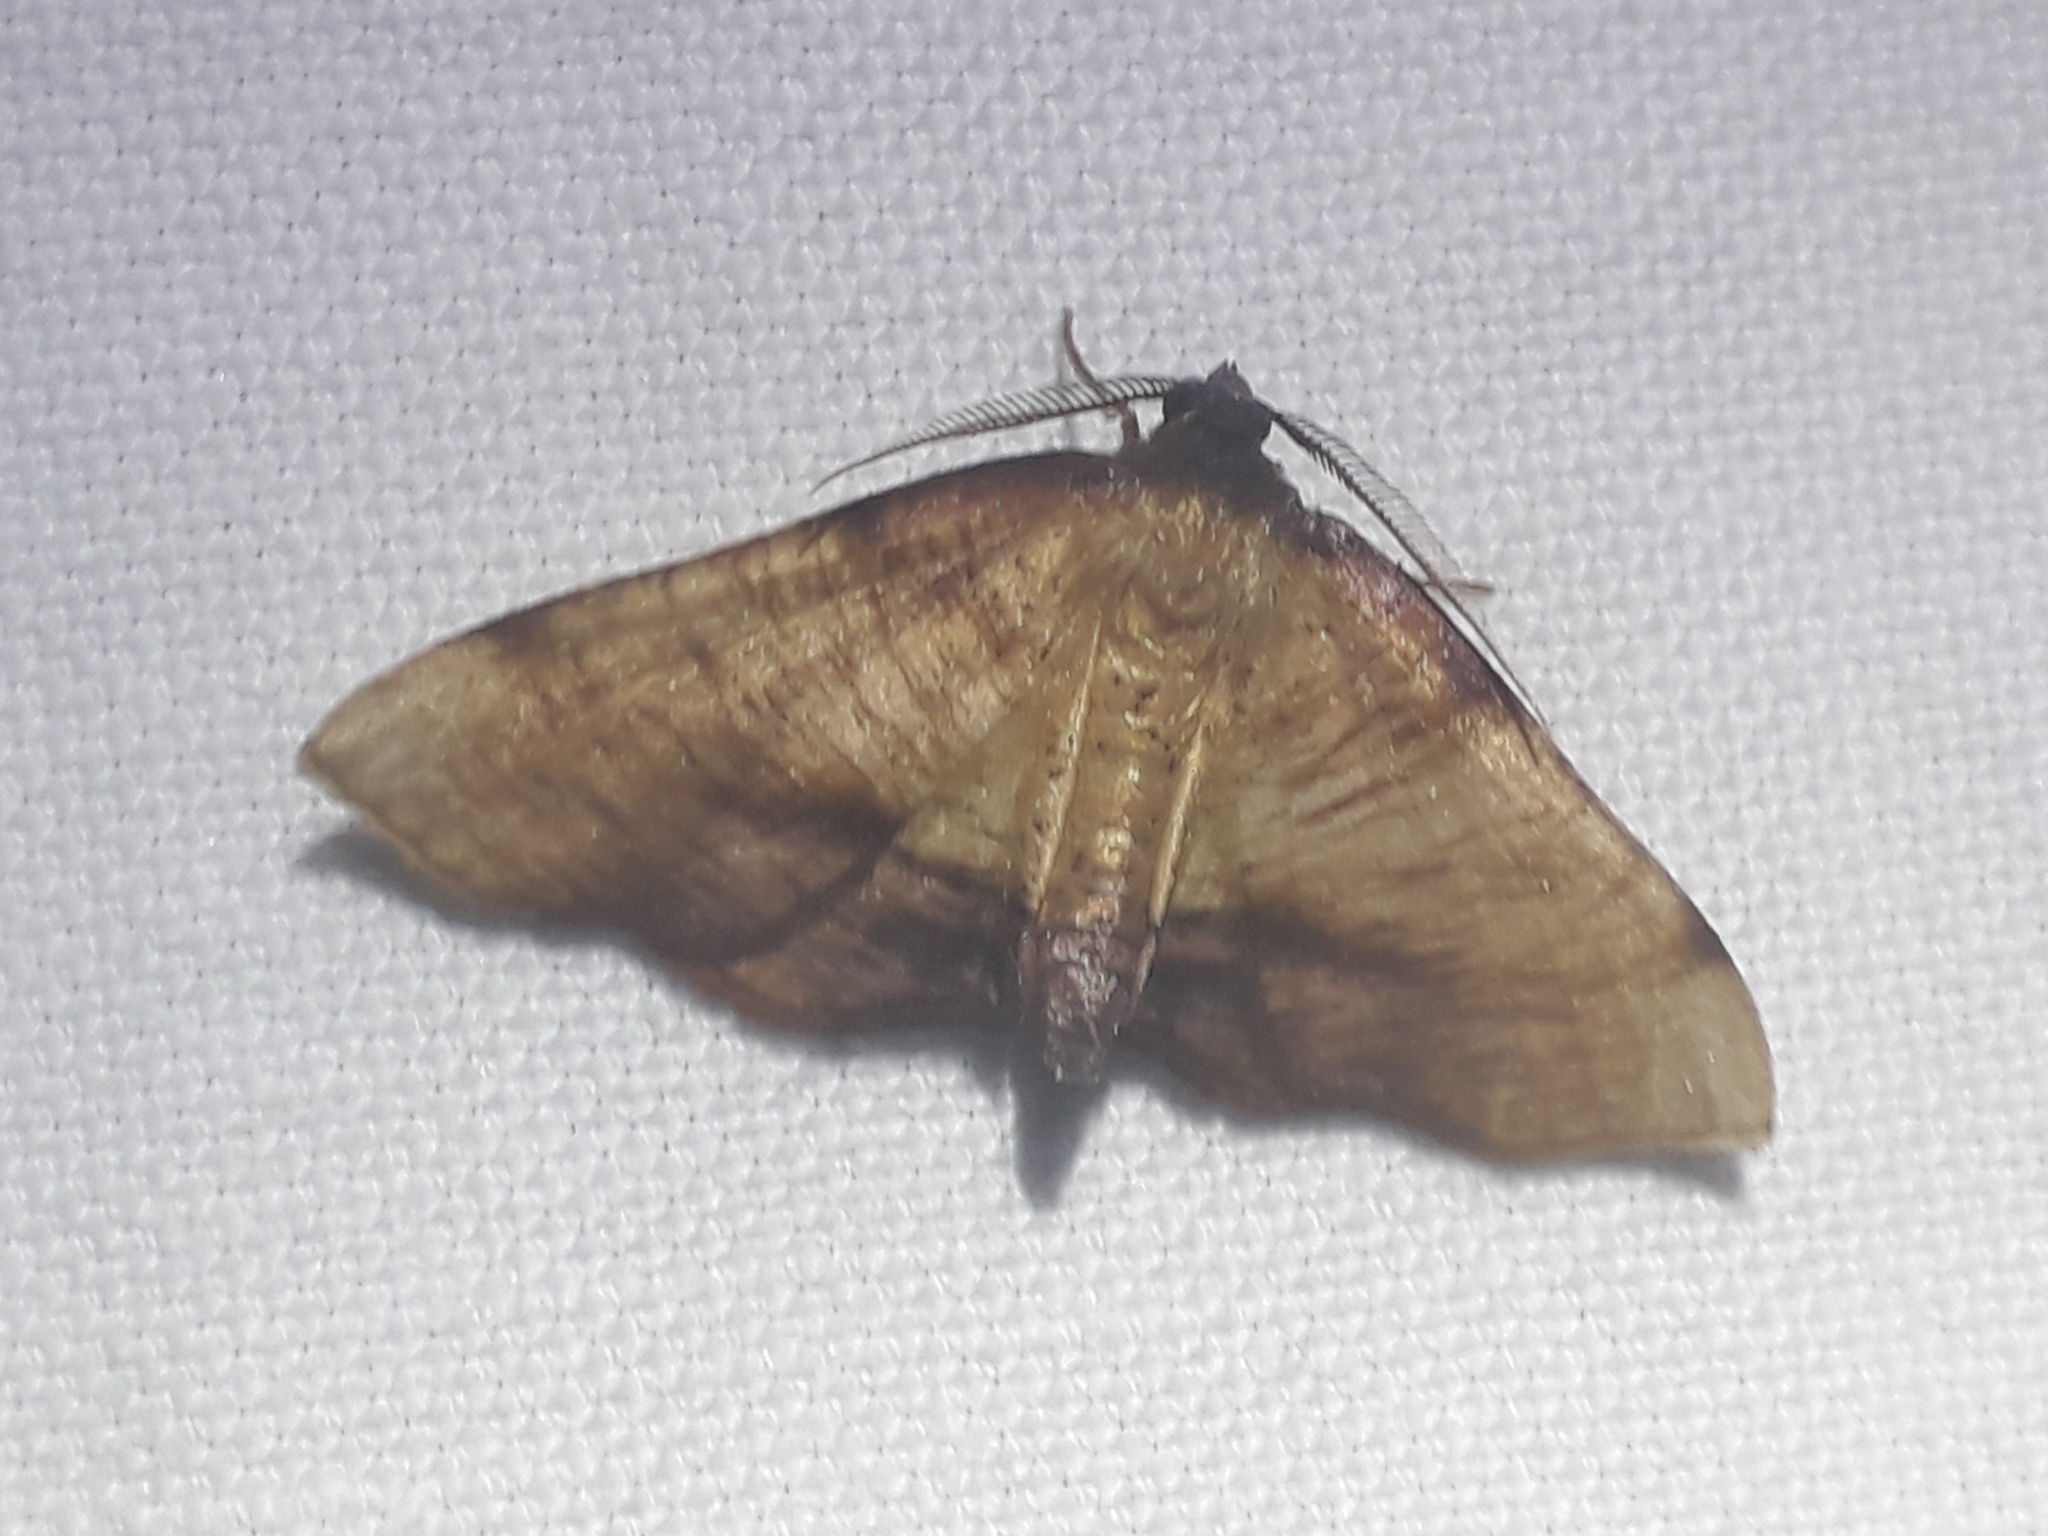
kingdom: Animalia
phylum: Arthropoda
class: Insecta
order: Lepidoptera
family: Geometridae
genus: Plagodis
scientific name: Plagodis dolabraria
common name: Scorched wing
